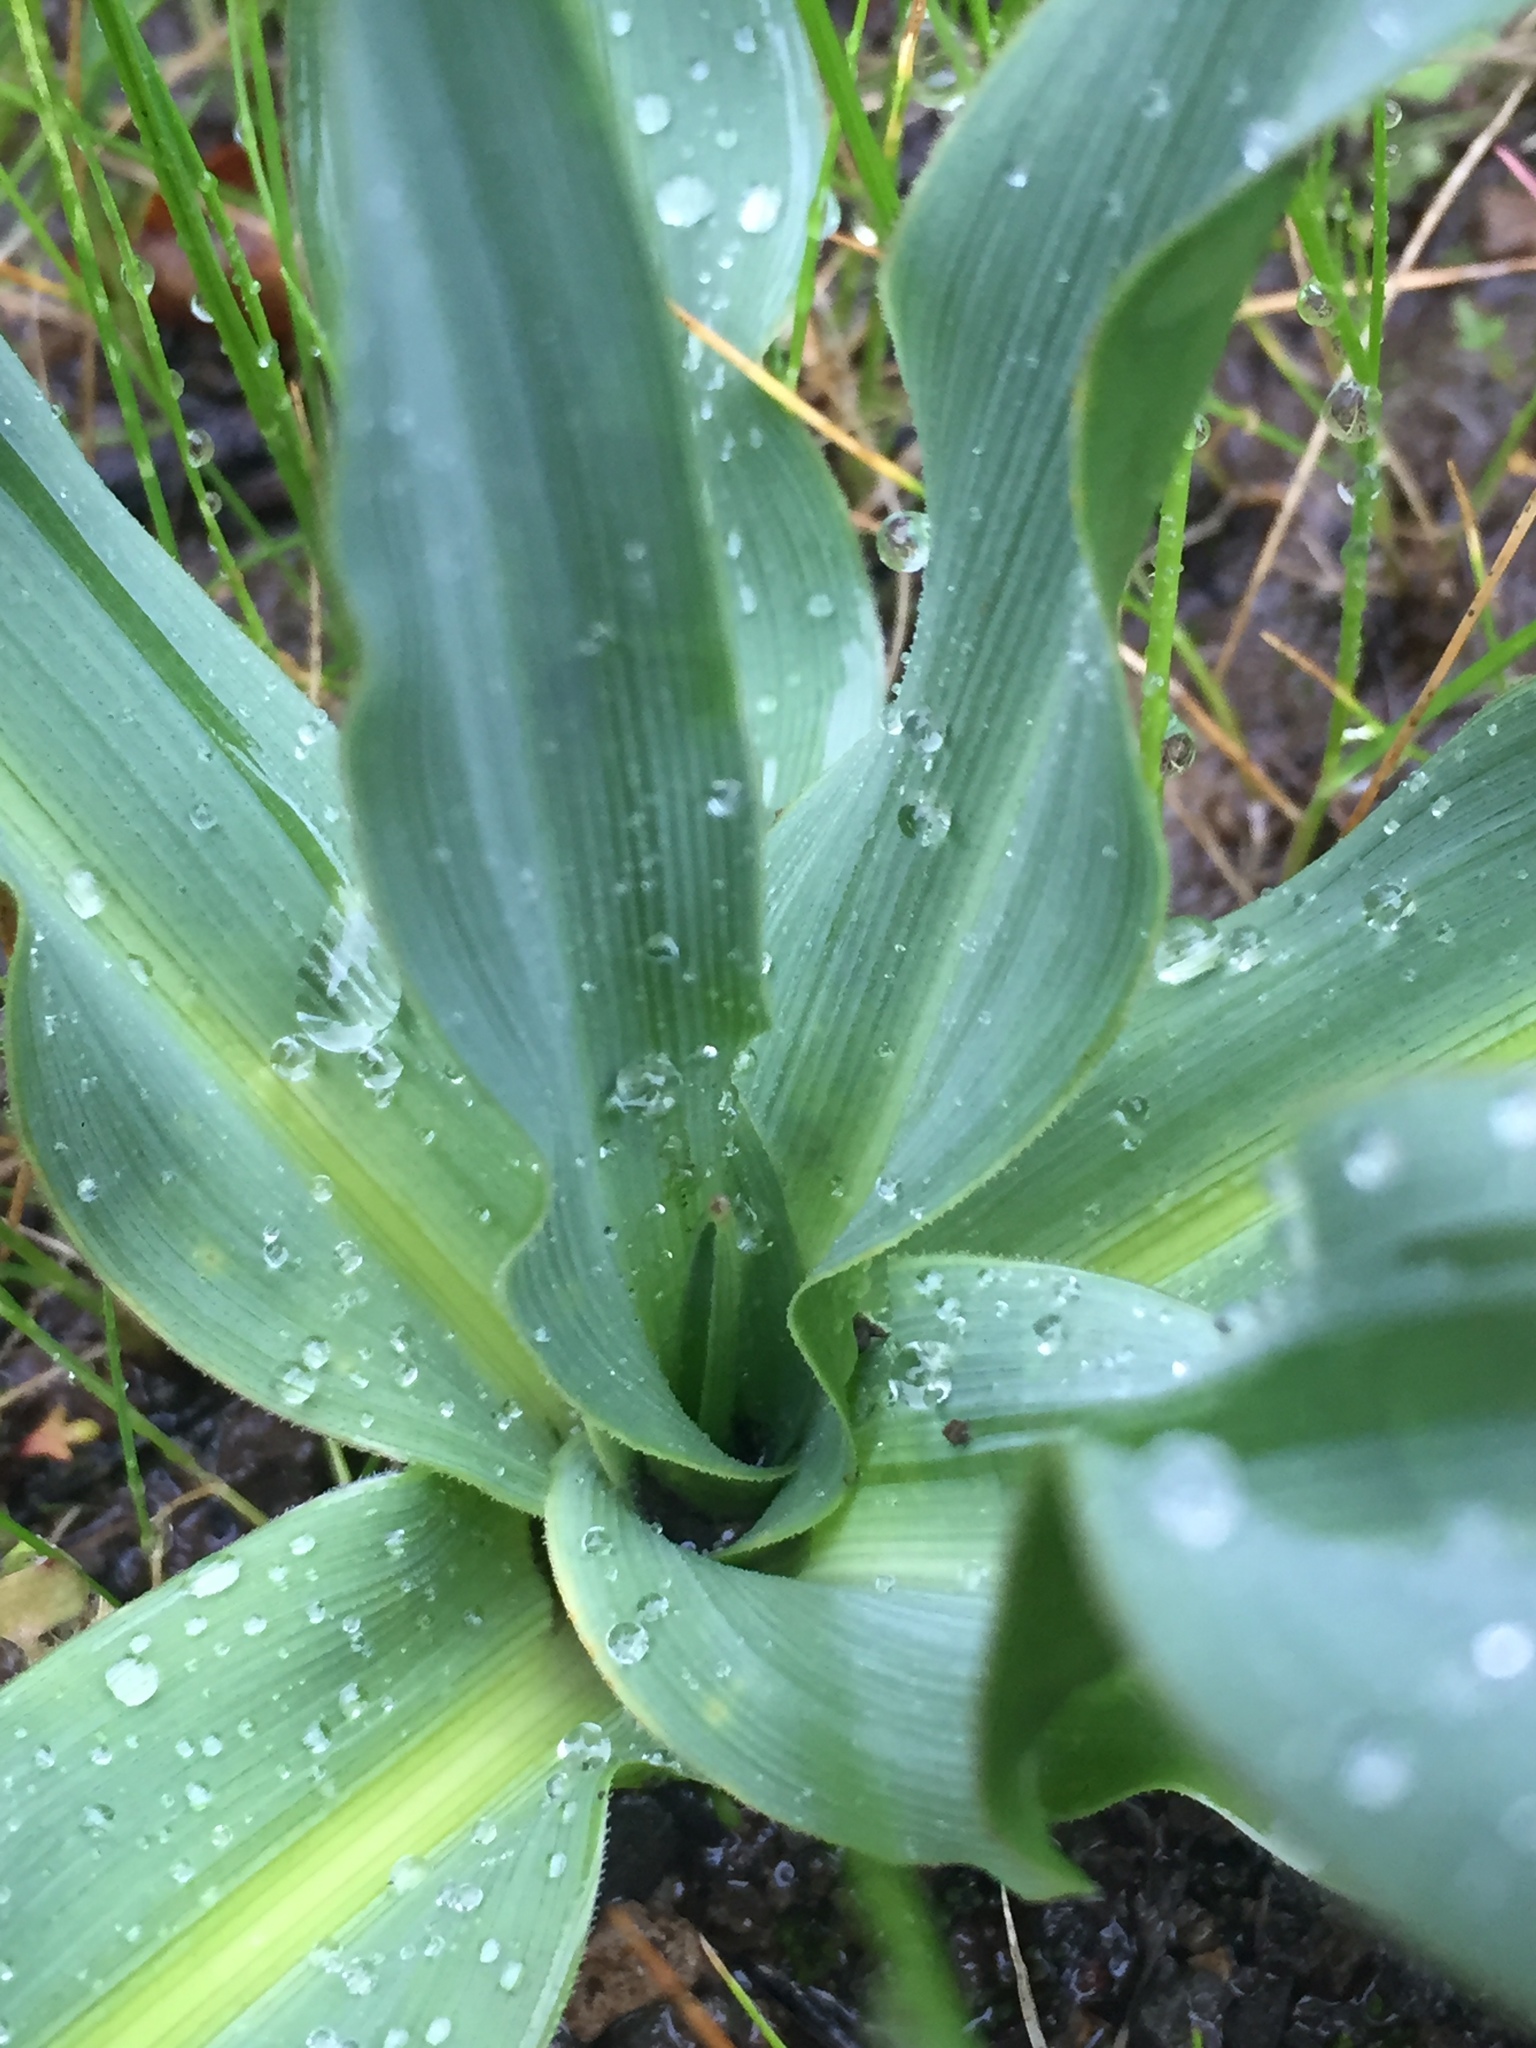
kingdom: Plantae
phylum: Tracheophyta
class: Liliopsida
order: Asparagales
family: Asparagaceae
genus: Chlorogalum
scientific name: Chlorogalum pomeridianum
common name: Amole
